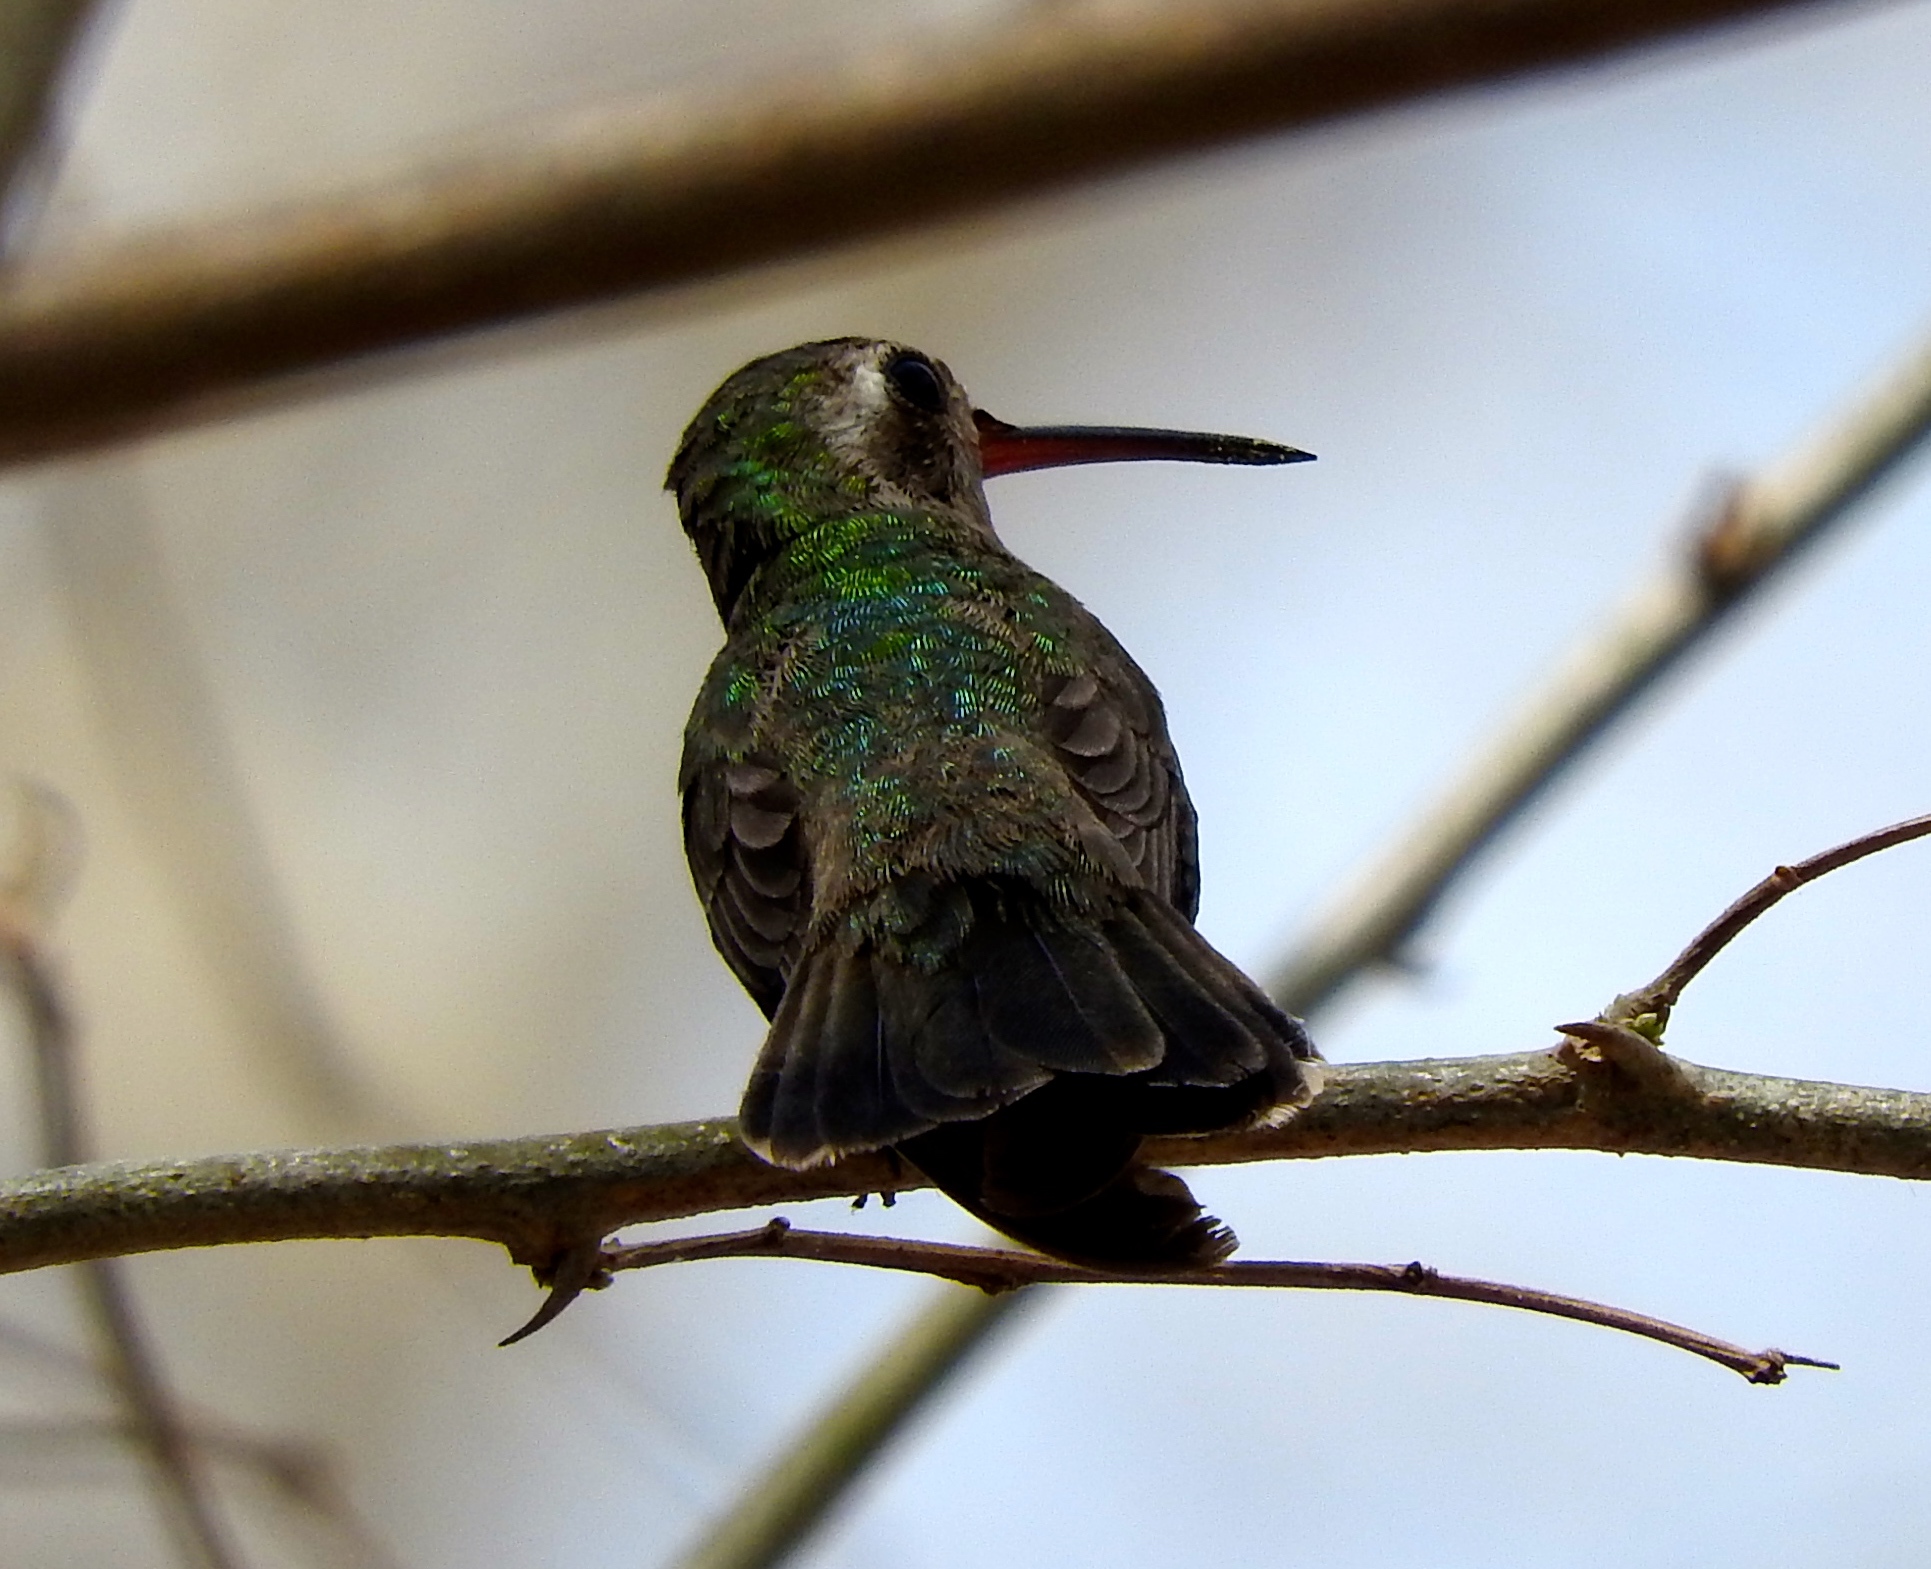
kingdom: Animalia
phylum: Chordata
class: Aves
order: Apodiformes
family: Trochilidae
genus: Cynanthus
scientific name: Cynanthus latirostris
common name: Broad-billed hummingbird
